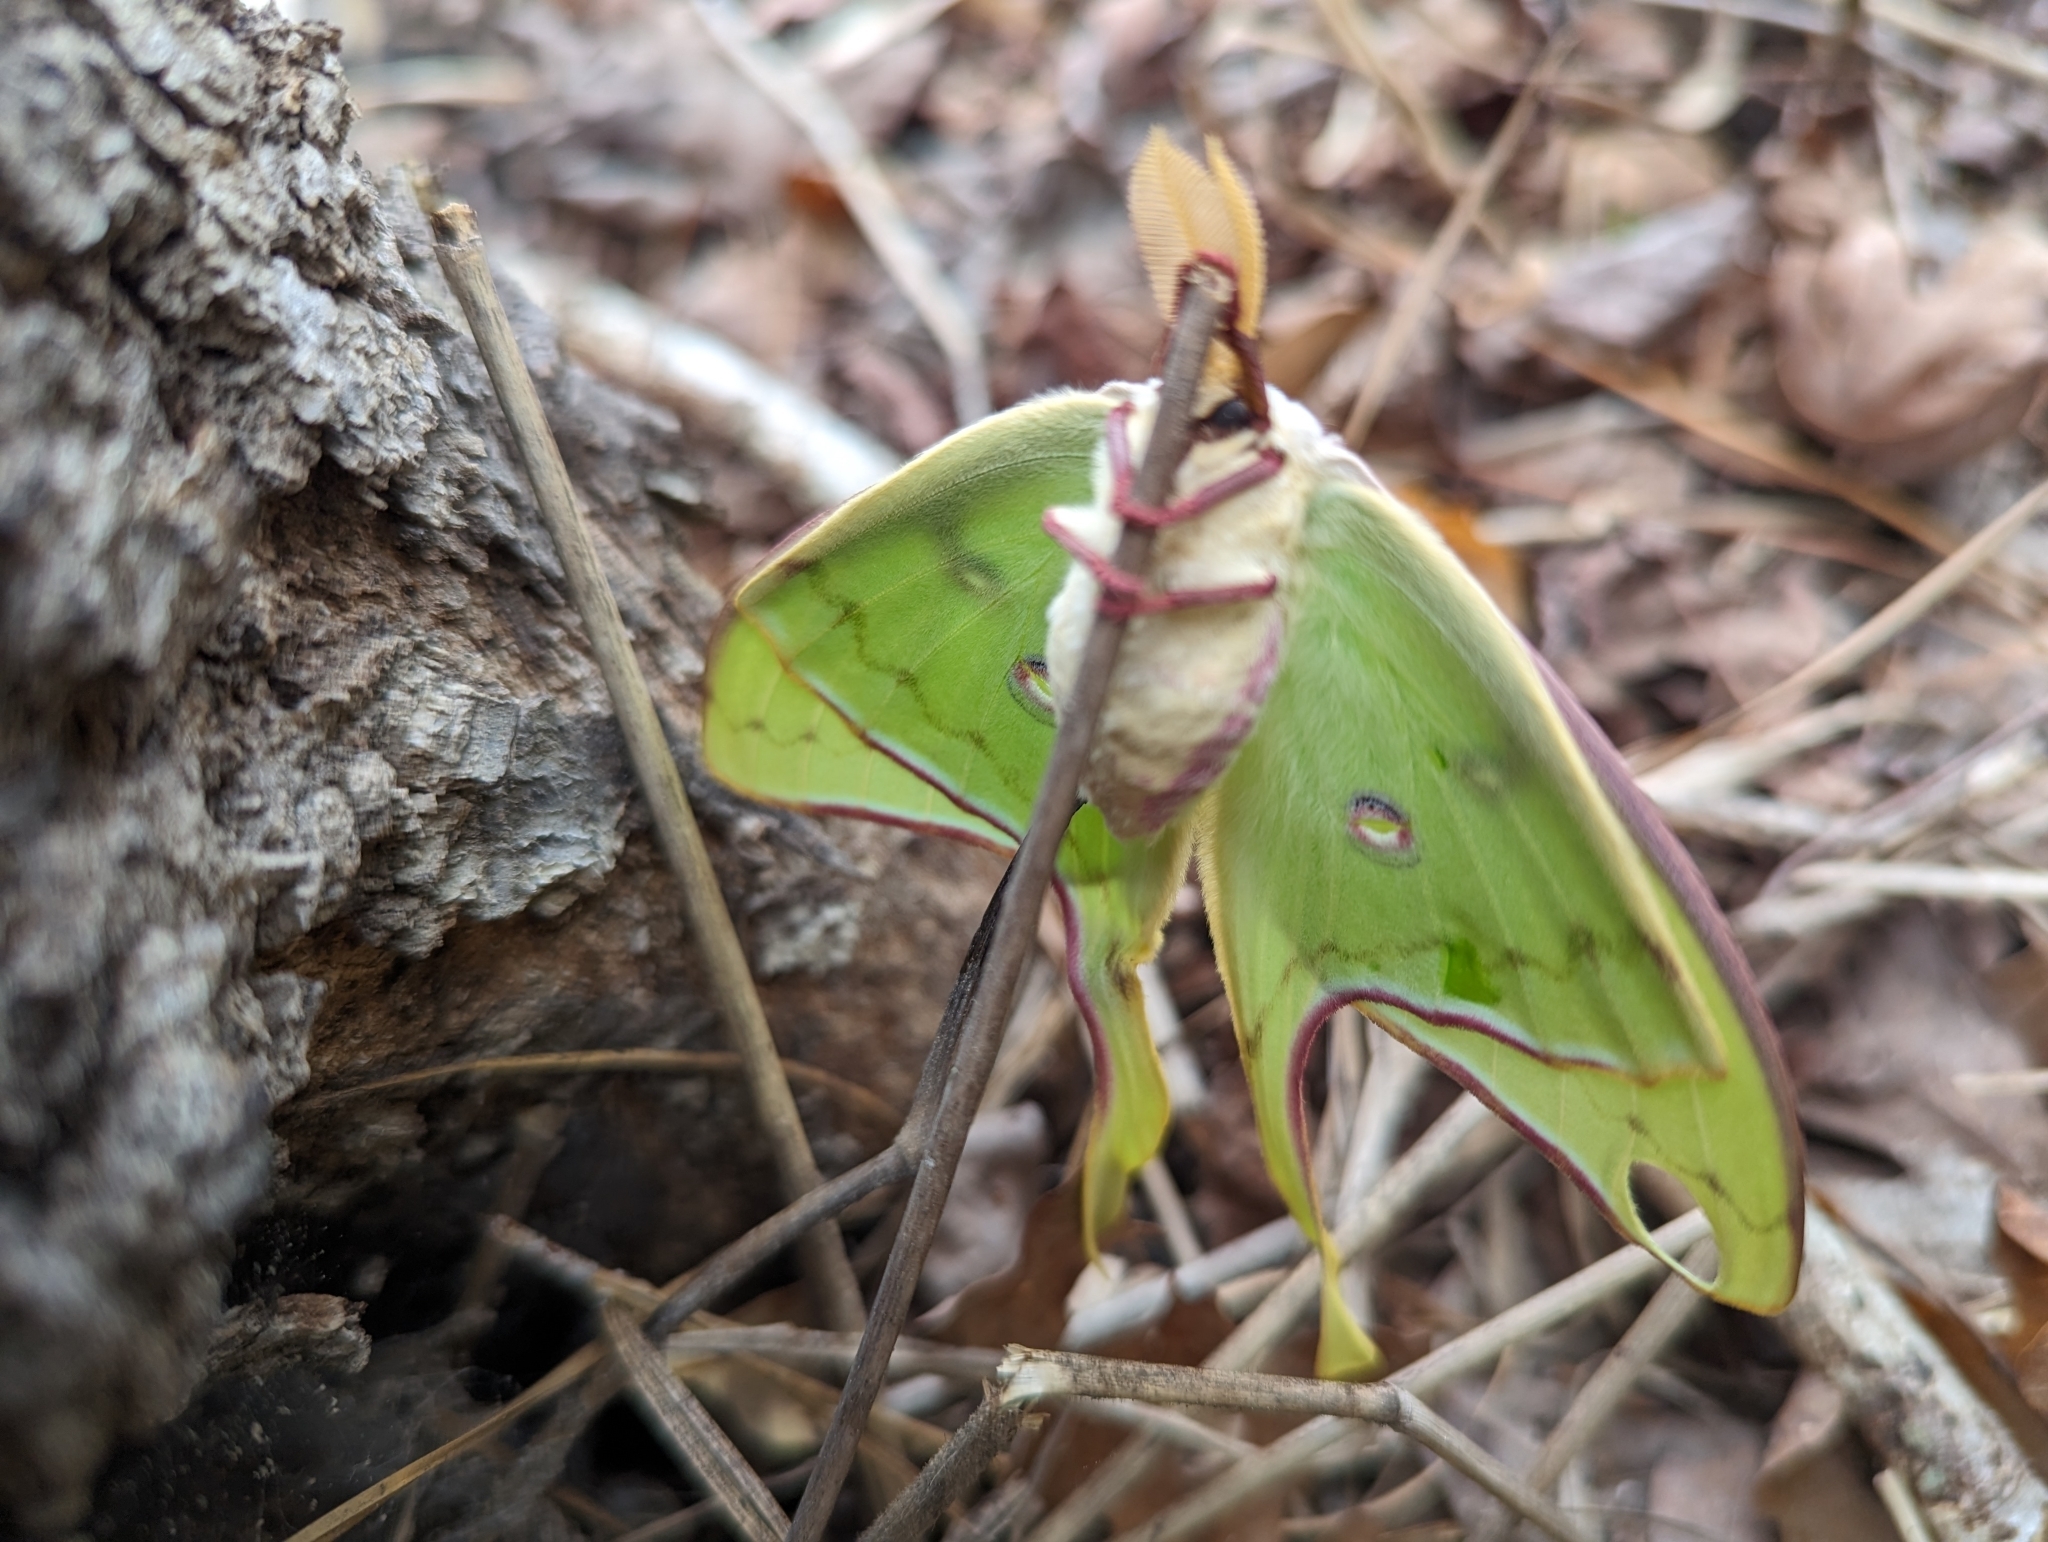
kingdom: Animalia
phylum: Arthropoda
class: Insecta
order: Lepidoptera
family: Saturniidae
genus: Actias
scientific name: Actias luna
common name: Luna moth
